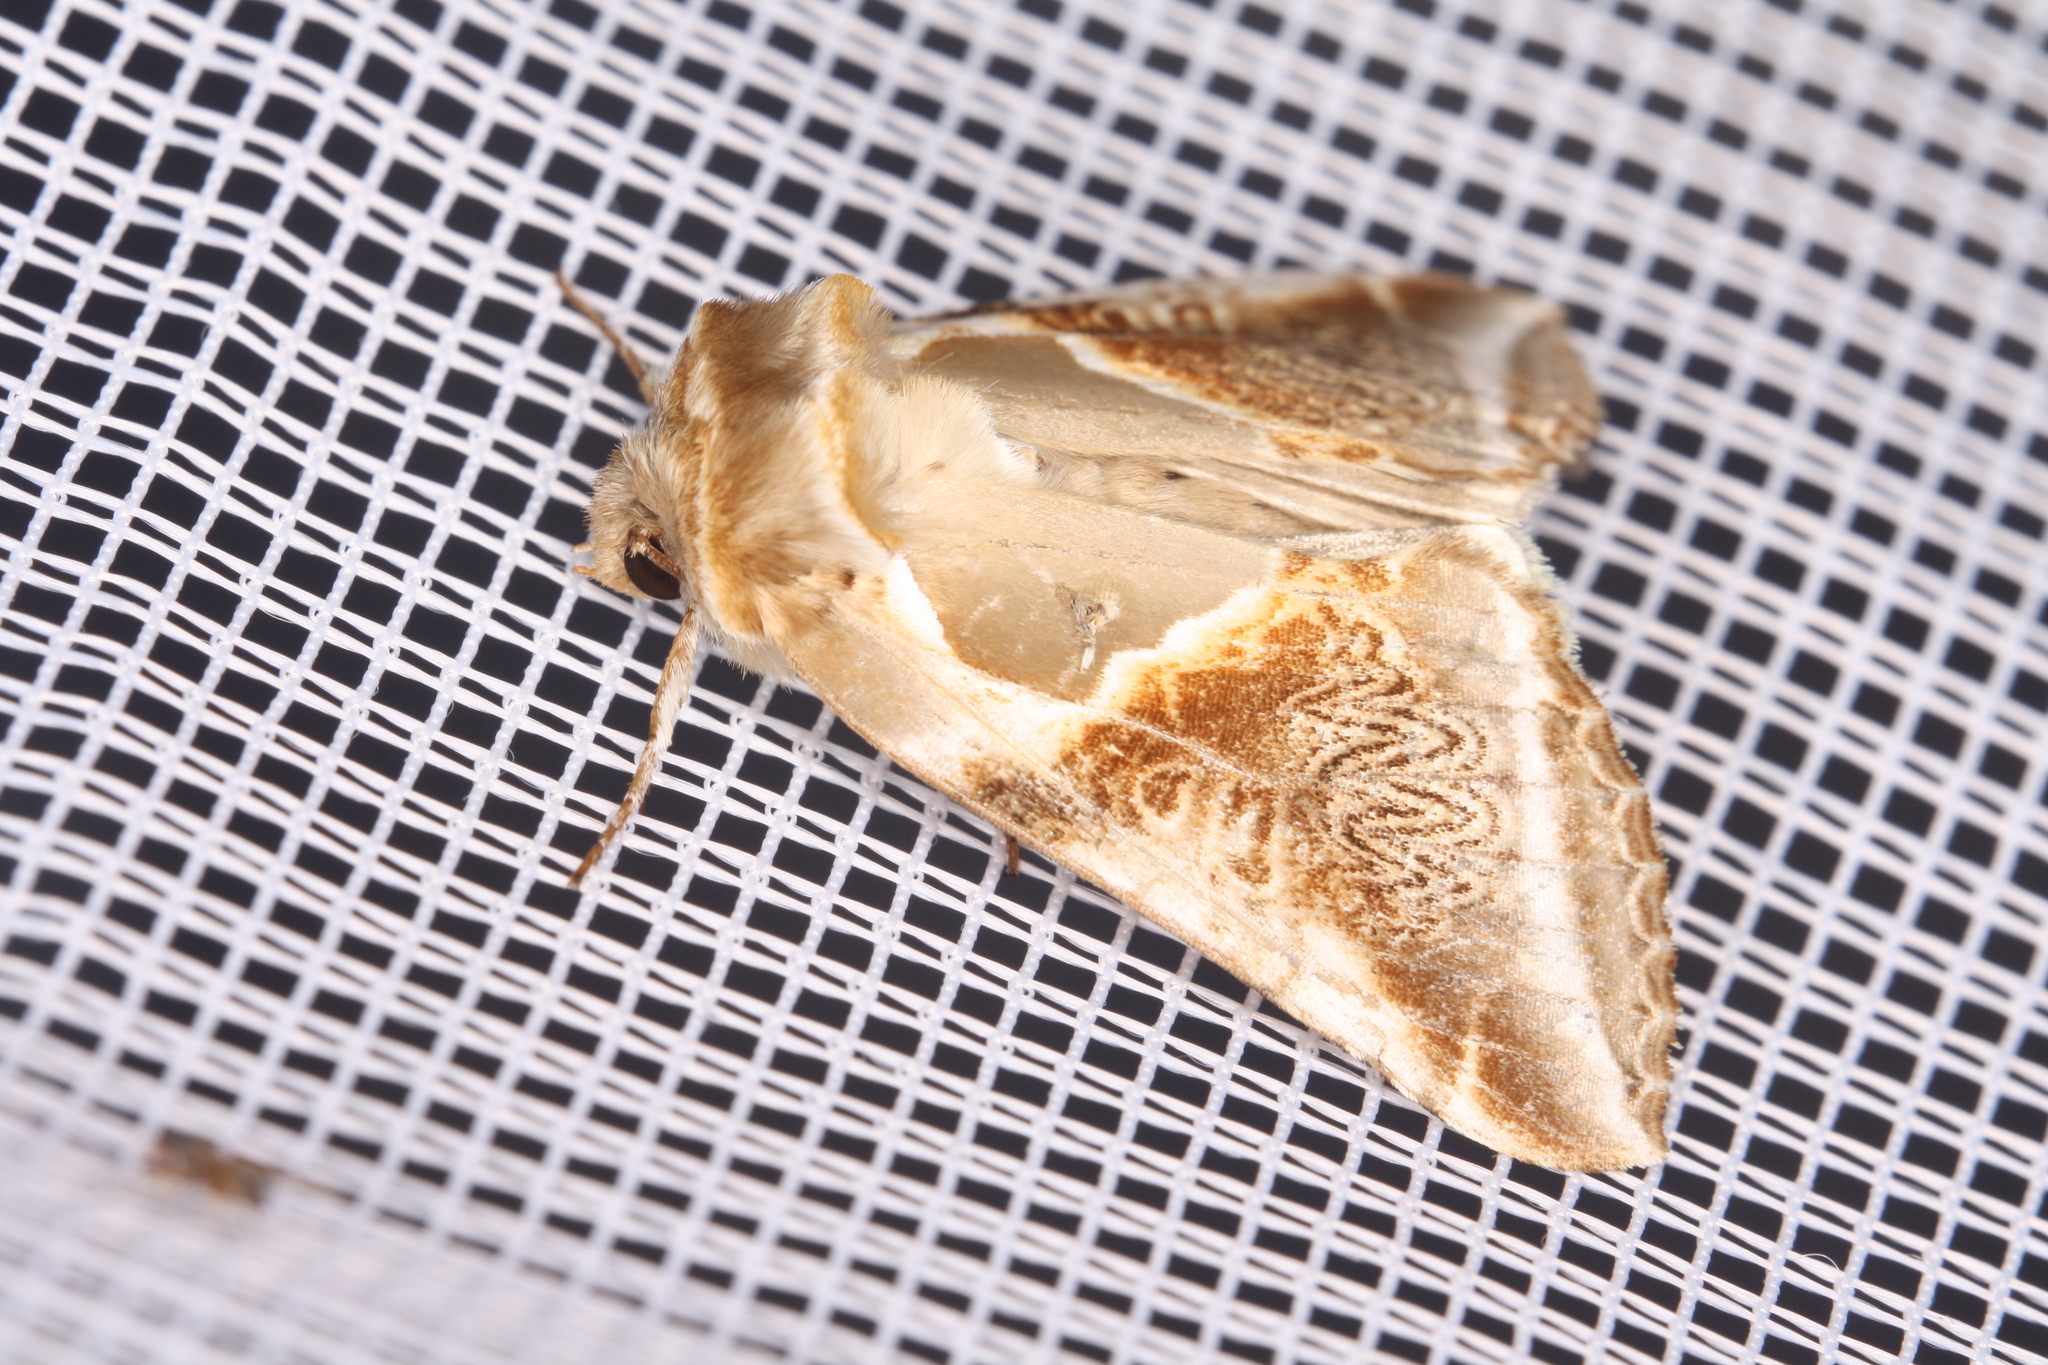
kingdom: Animalia
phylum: Arthropoda
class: Insecta
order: Lepidoptera
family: Drepanidae
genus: Habrosyne
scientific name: Habrosyne pyritoides
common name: Buff arches
